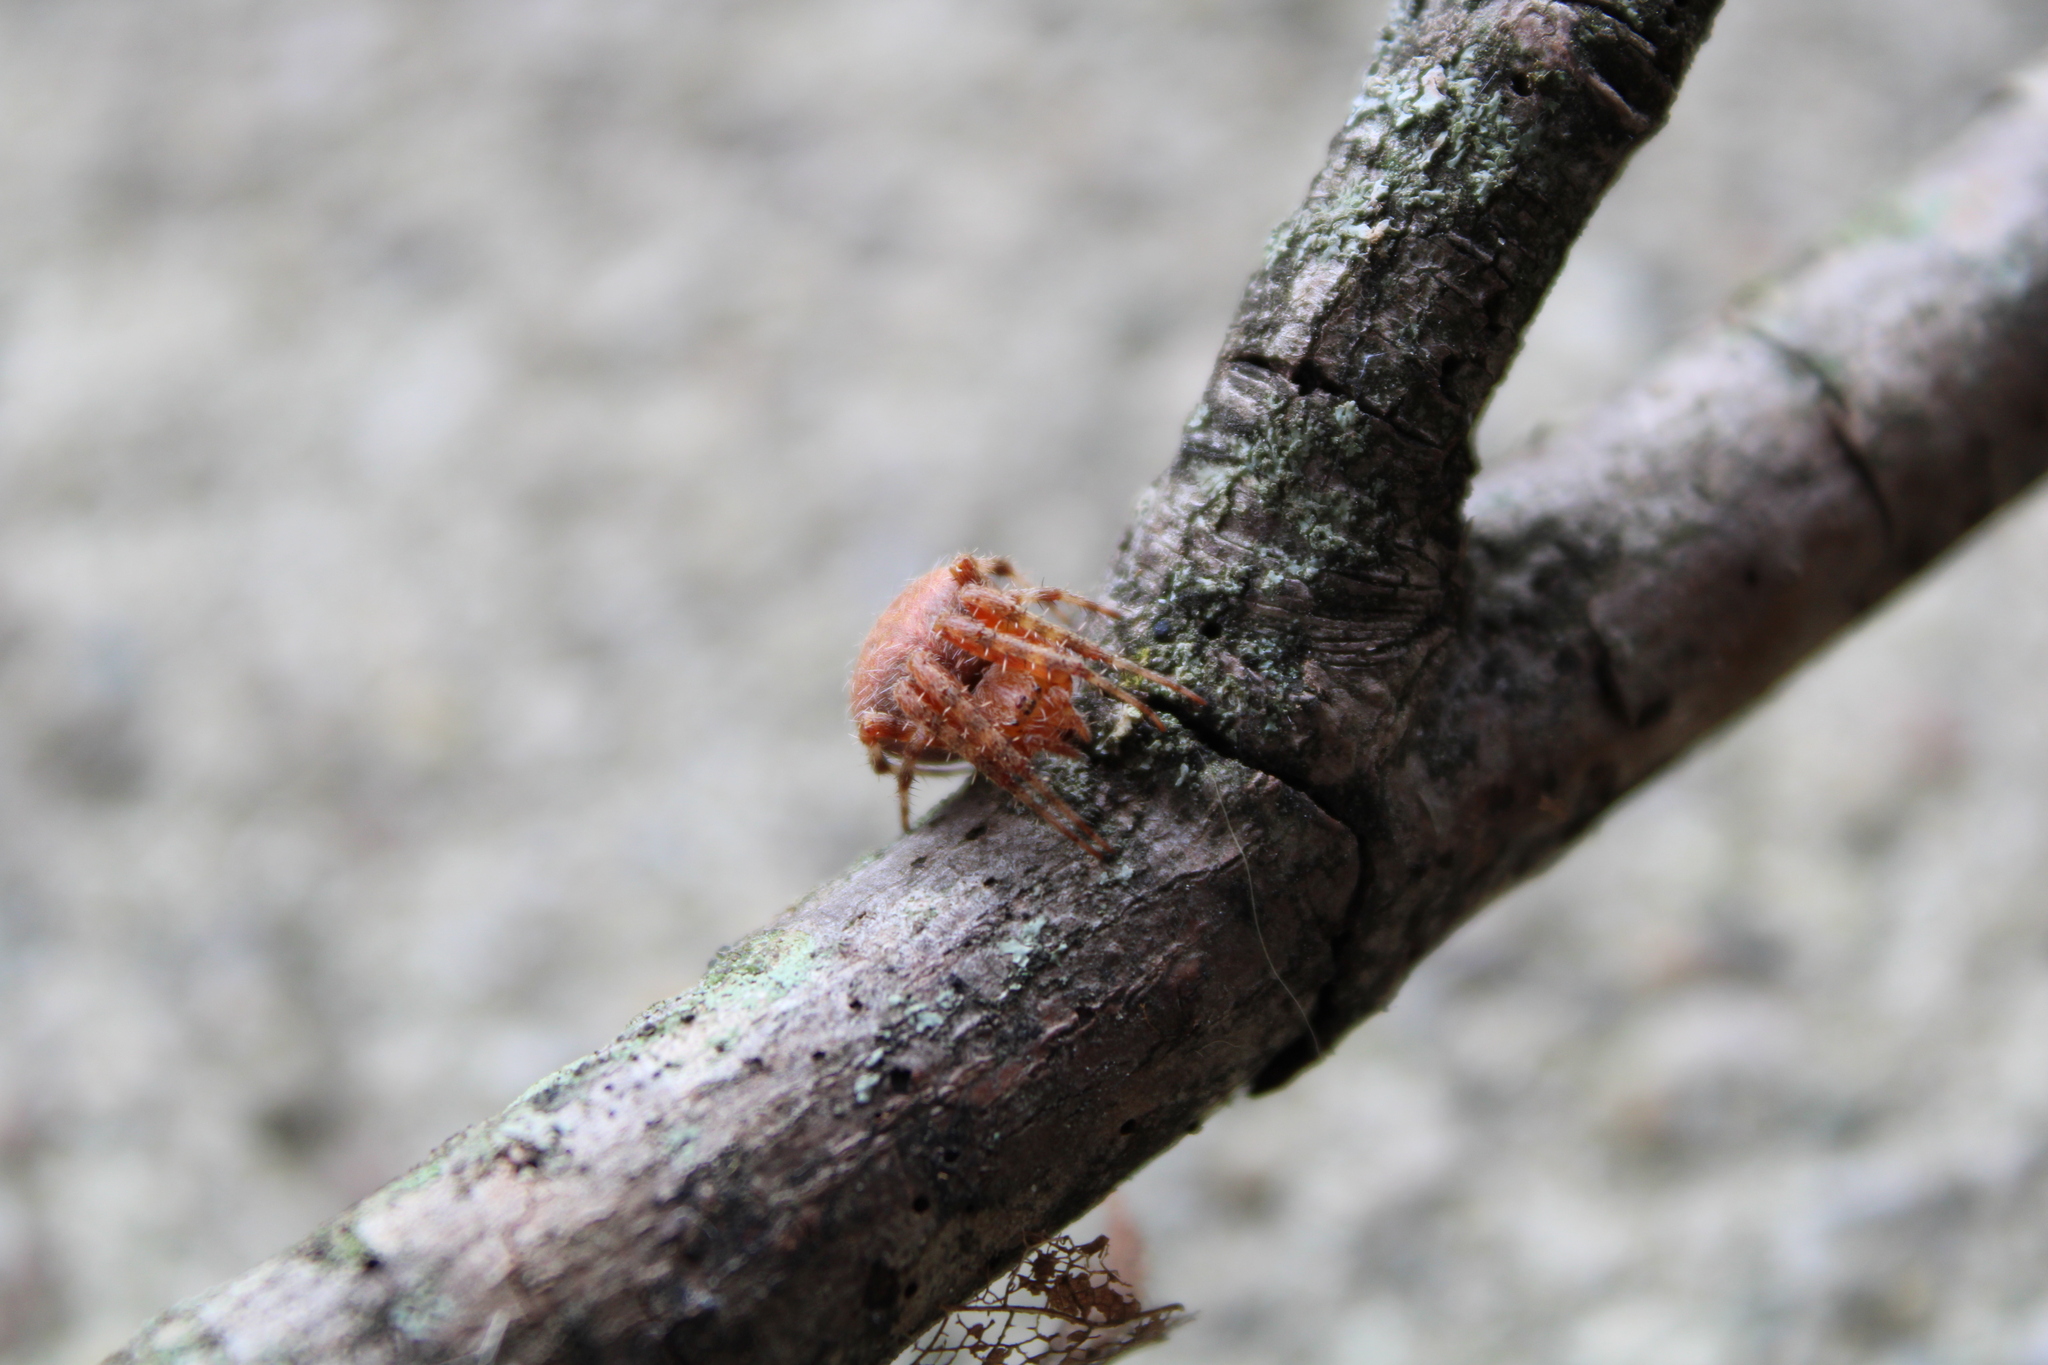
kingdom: Animalia
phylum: Arthropoda
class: Arachnida
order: Araneae
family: Araneidae
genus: Neoscona
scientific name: Neoscona crucifera
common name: Spotted orbweaver
